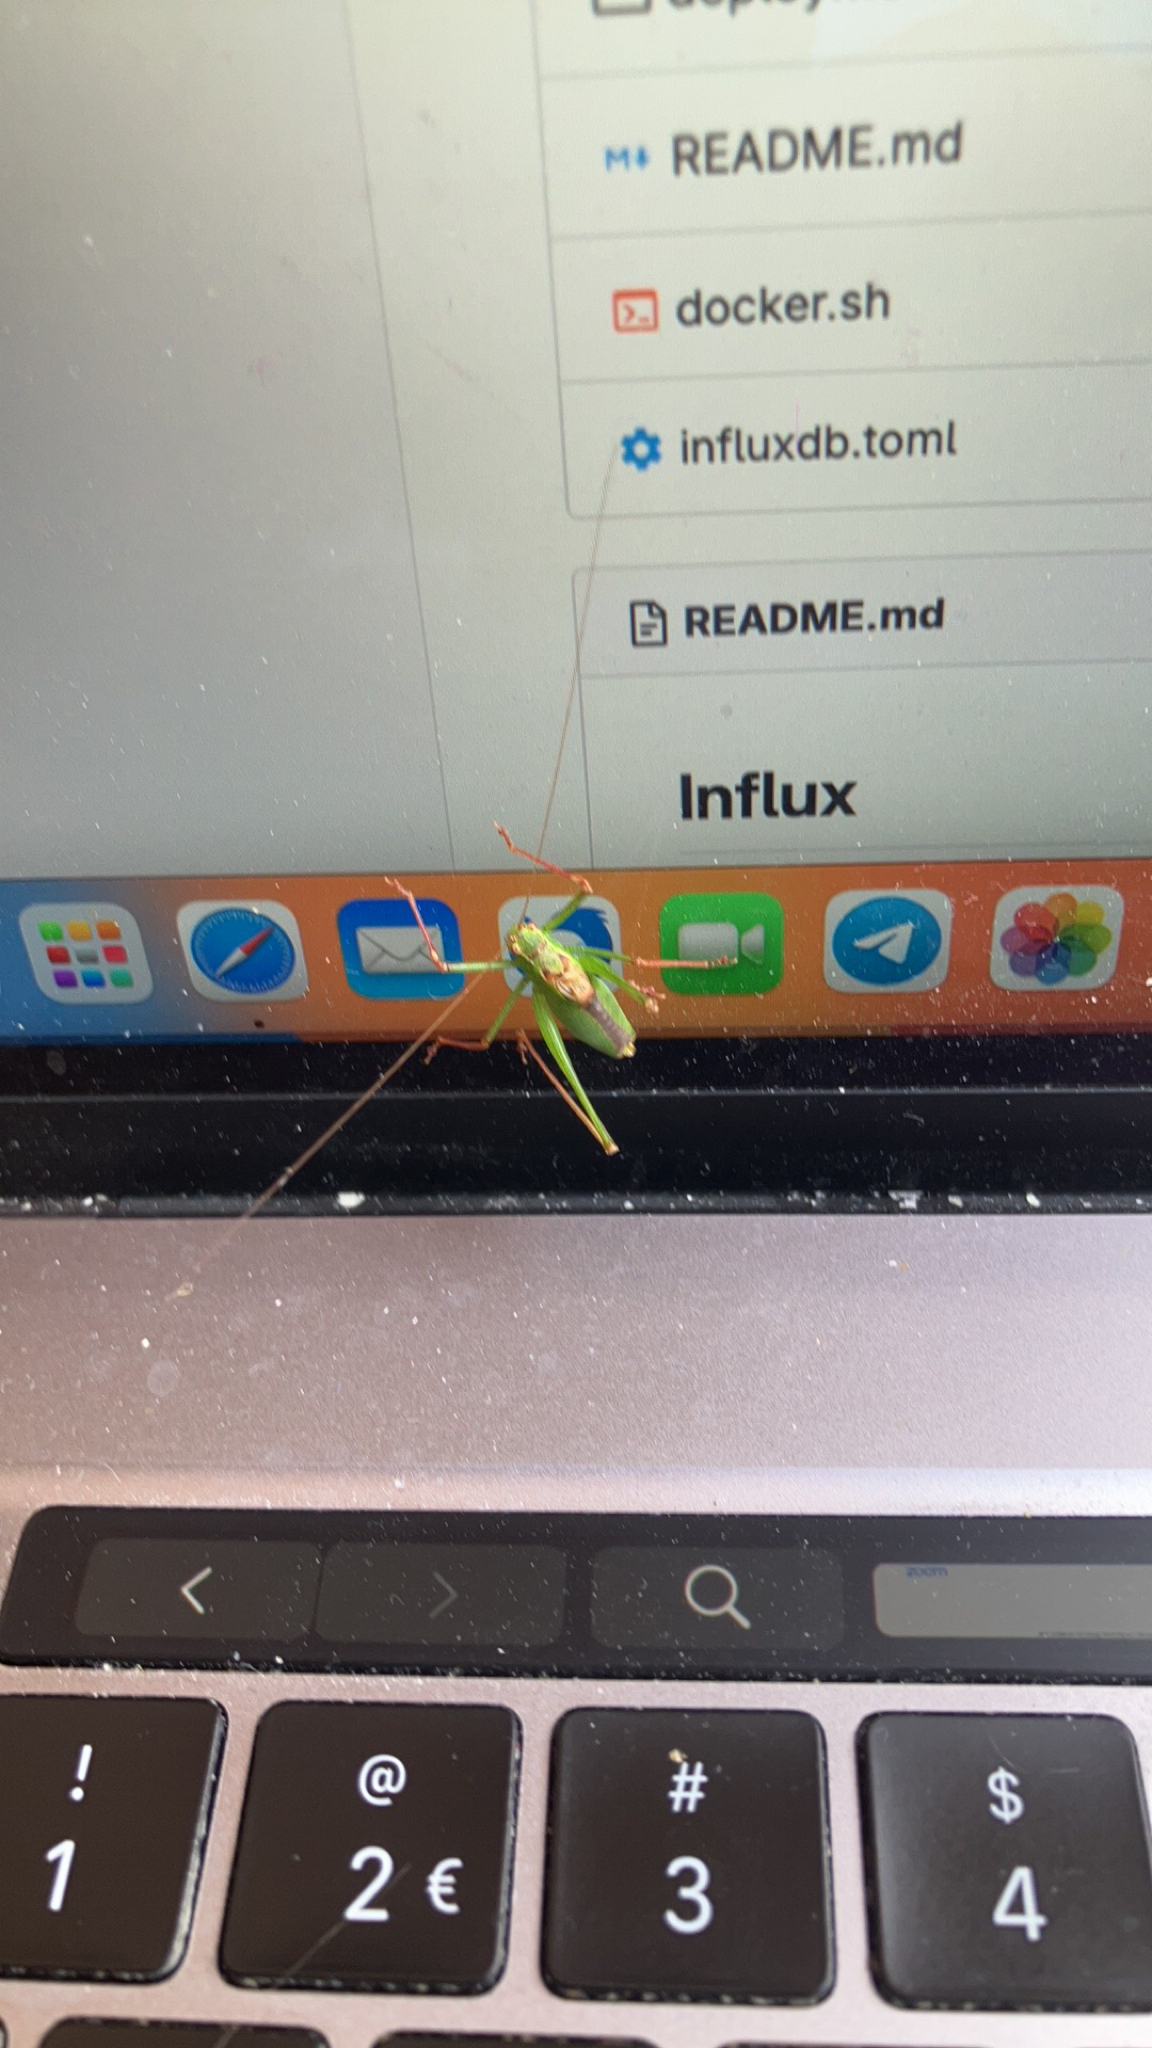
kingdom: Animalia
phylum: Arthropoda
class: Insecta
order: Orthoptera
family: Tettigoniidae
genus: Leptophyes
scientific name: Leptophyes punctatissima
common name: Speckled bush-cricket
